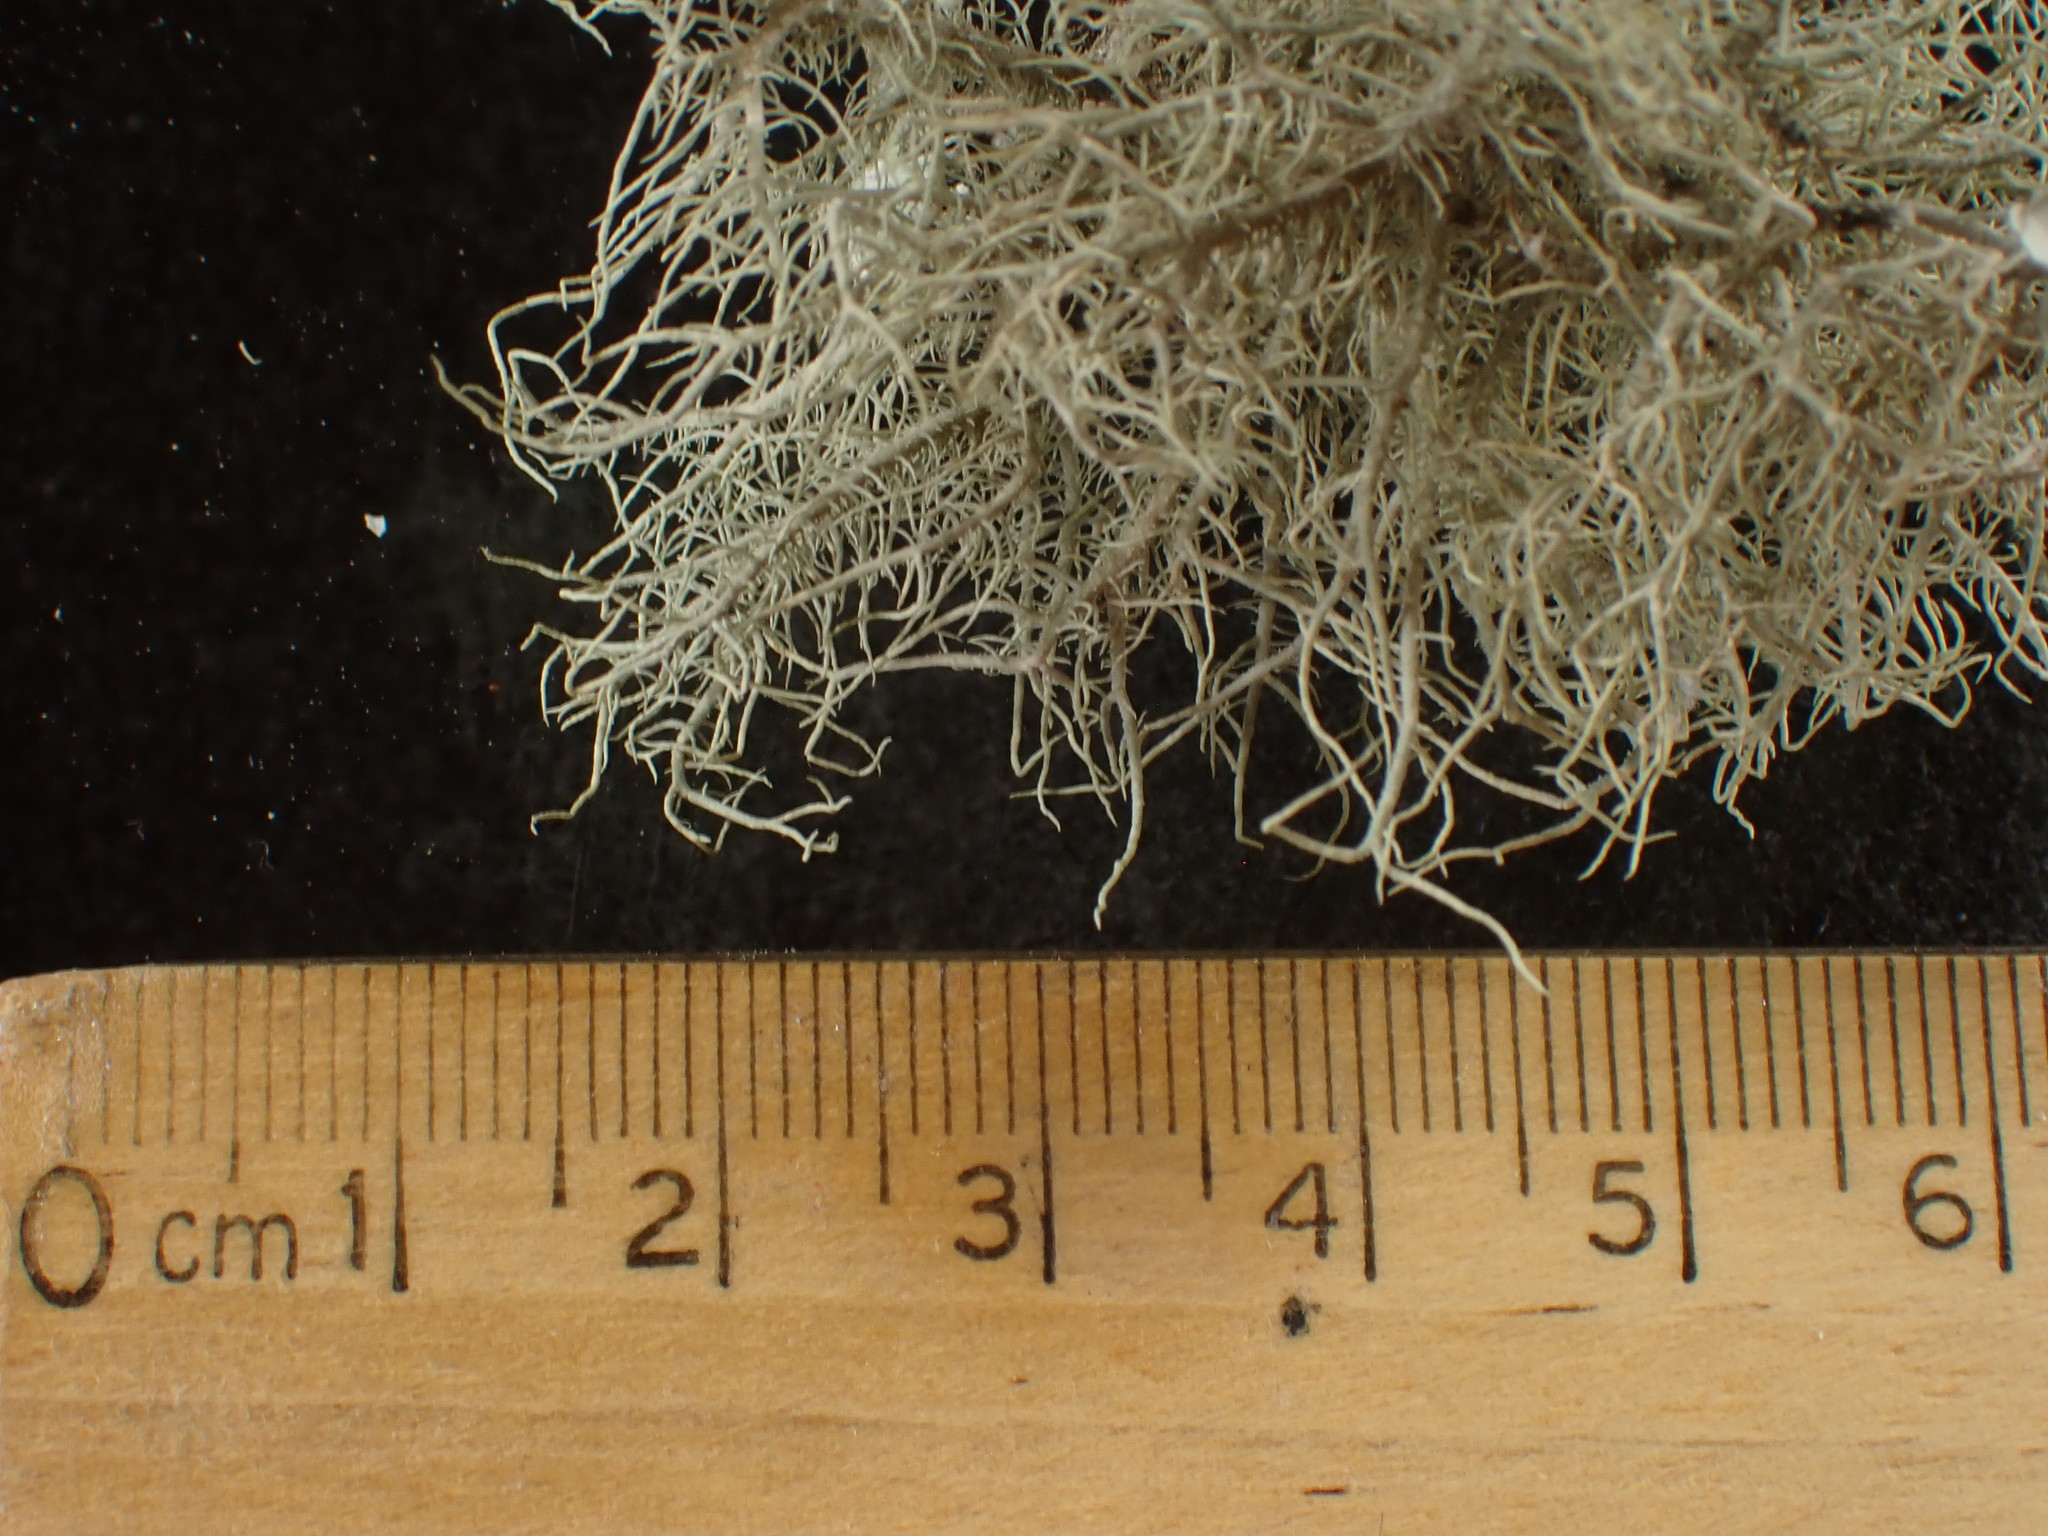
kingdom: Fungi
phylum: Ascomycota
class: Lecanoromycetes
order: Lecanorales
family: Parmeliaceae
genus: Usnea
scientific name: Usnea strigosa
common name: Bushy beard lichen
